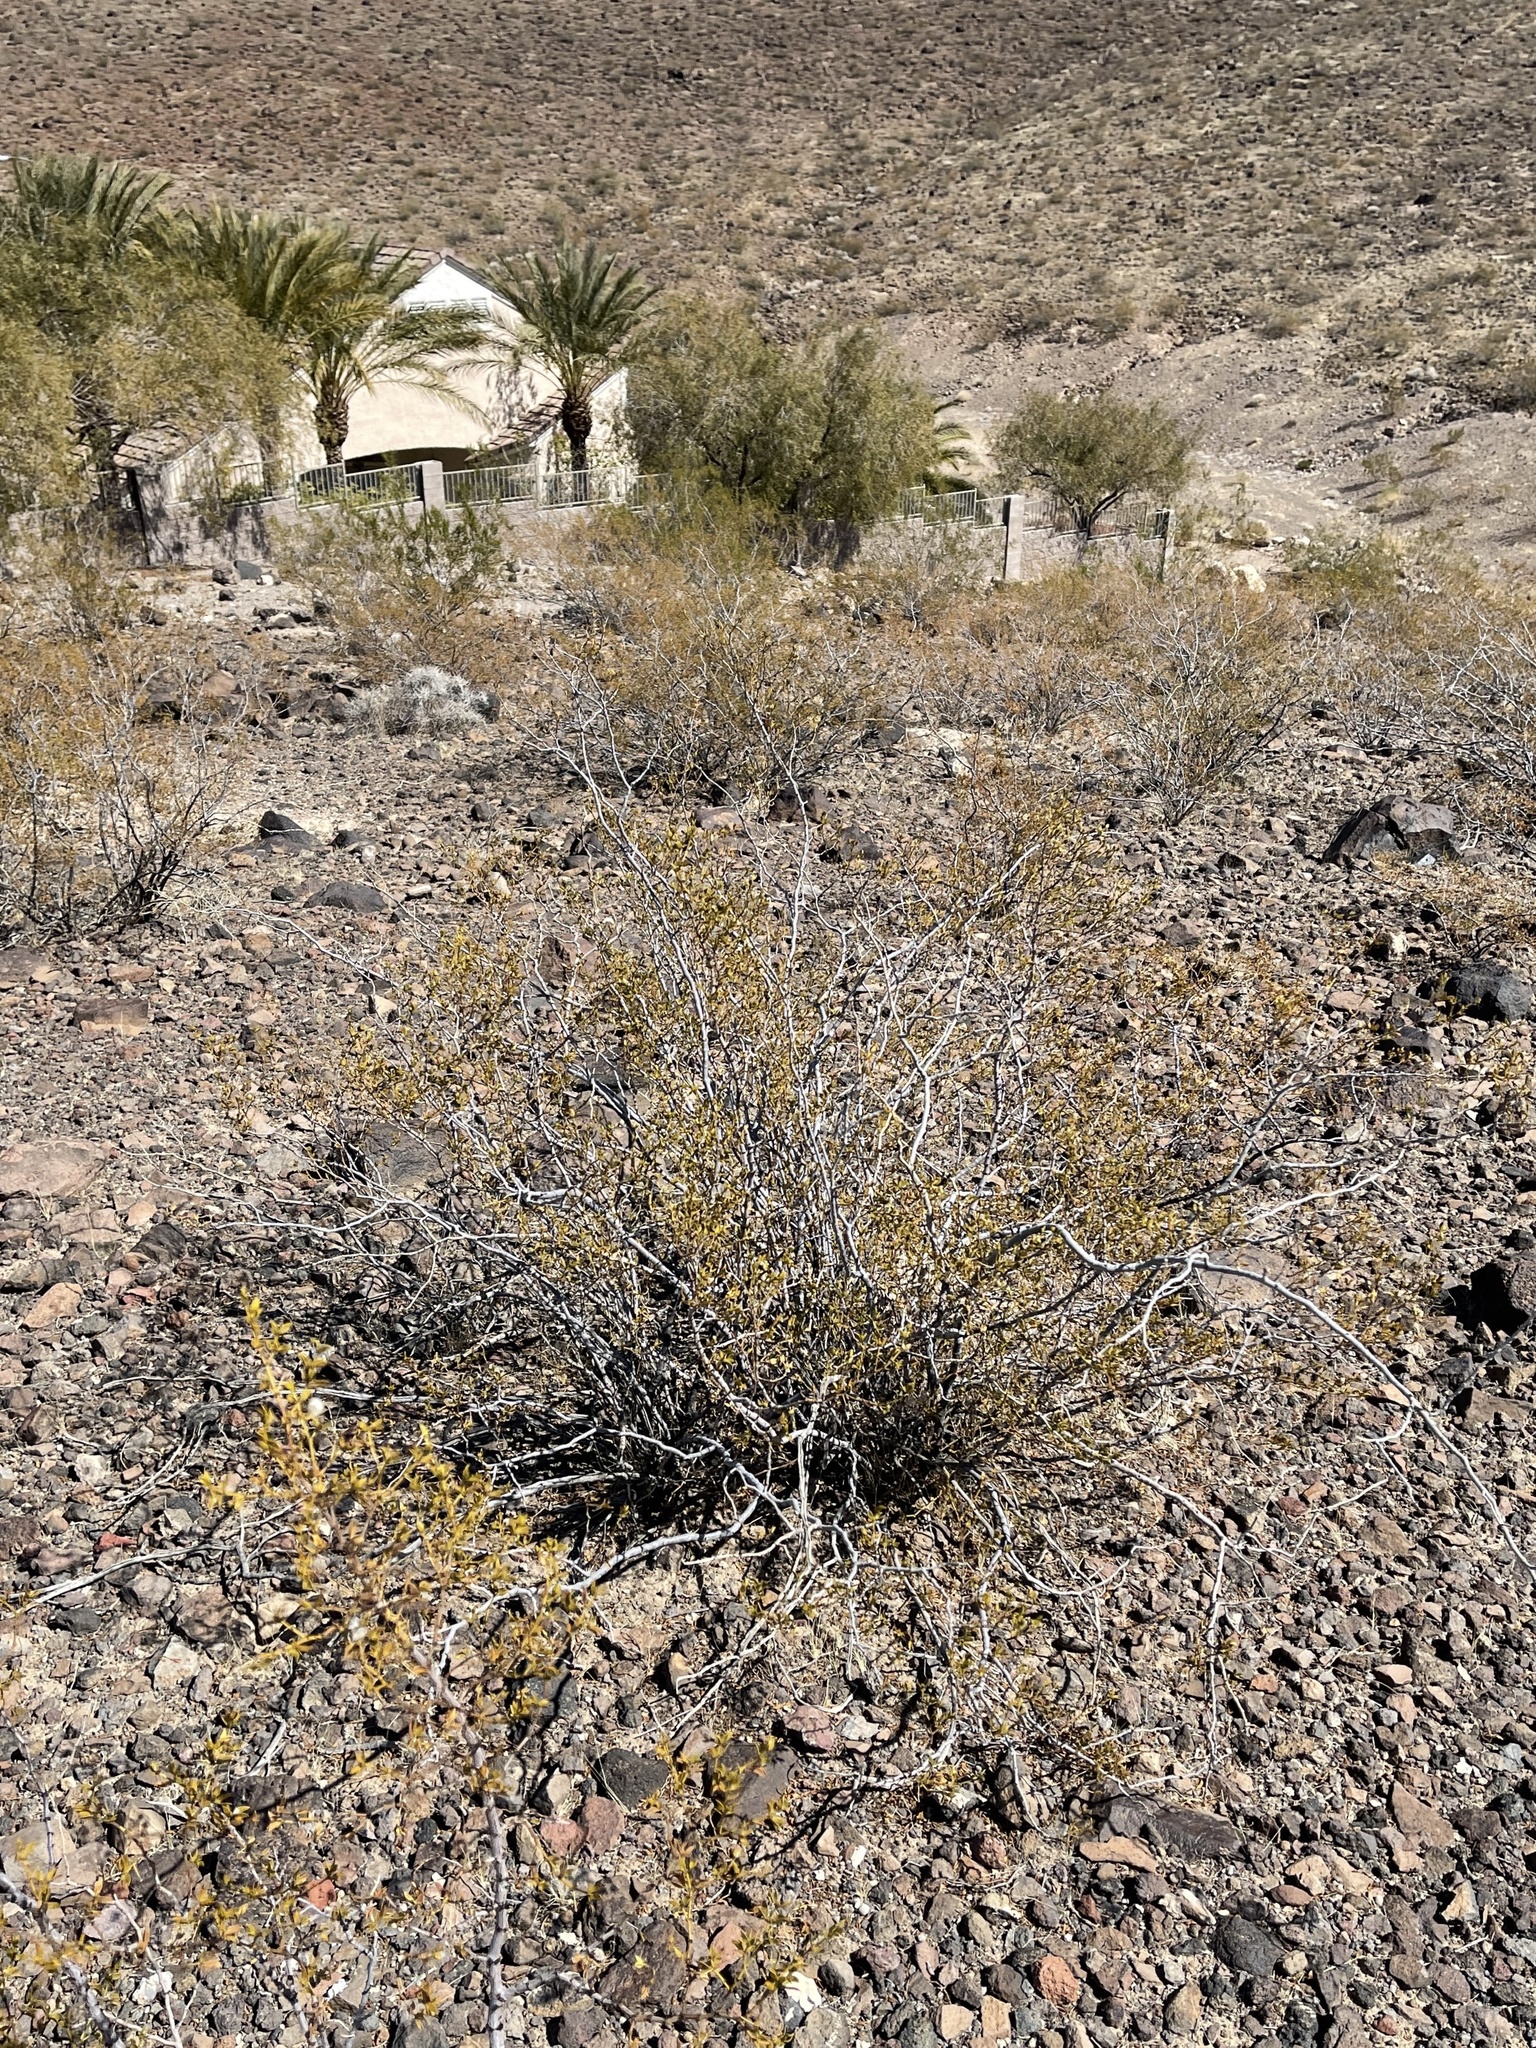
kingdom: Plantae
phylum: Tracheophyta
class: Magnoliopsida
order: Zygophyllales
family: Zygophyllaceae
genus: Larrea
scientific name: Larrea tridentata
